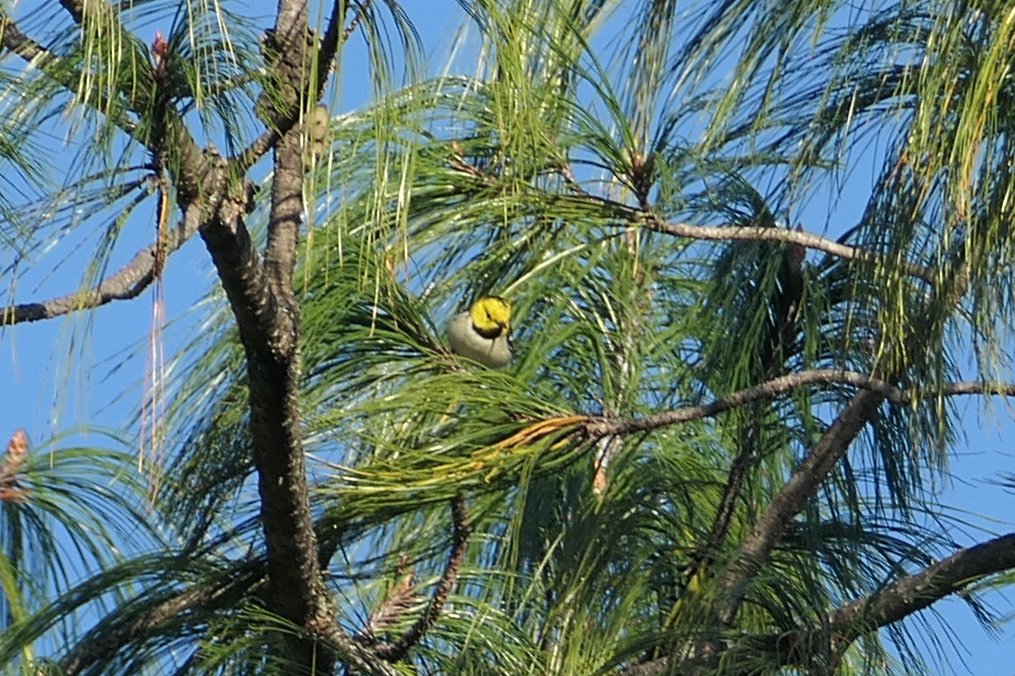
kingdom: Animalia
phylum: Chordata
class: Aves
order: Passeriformes
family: Parulidae
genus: Setophaga
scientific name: Setophaga occidentalis
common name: Hermit warbler
